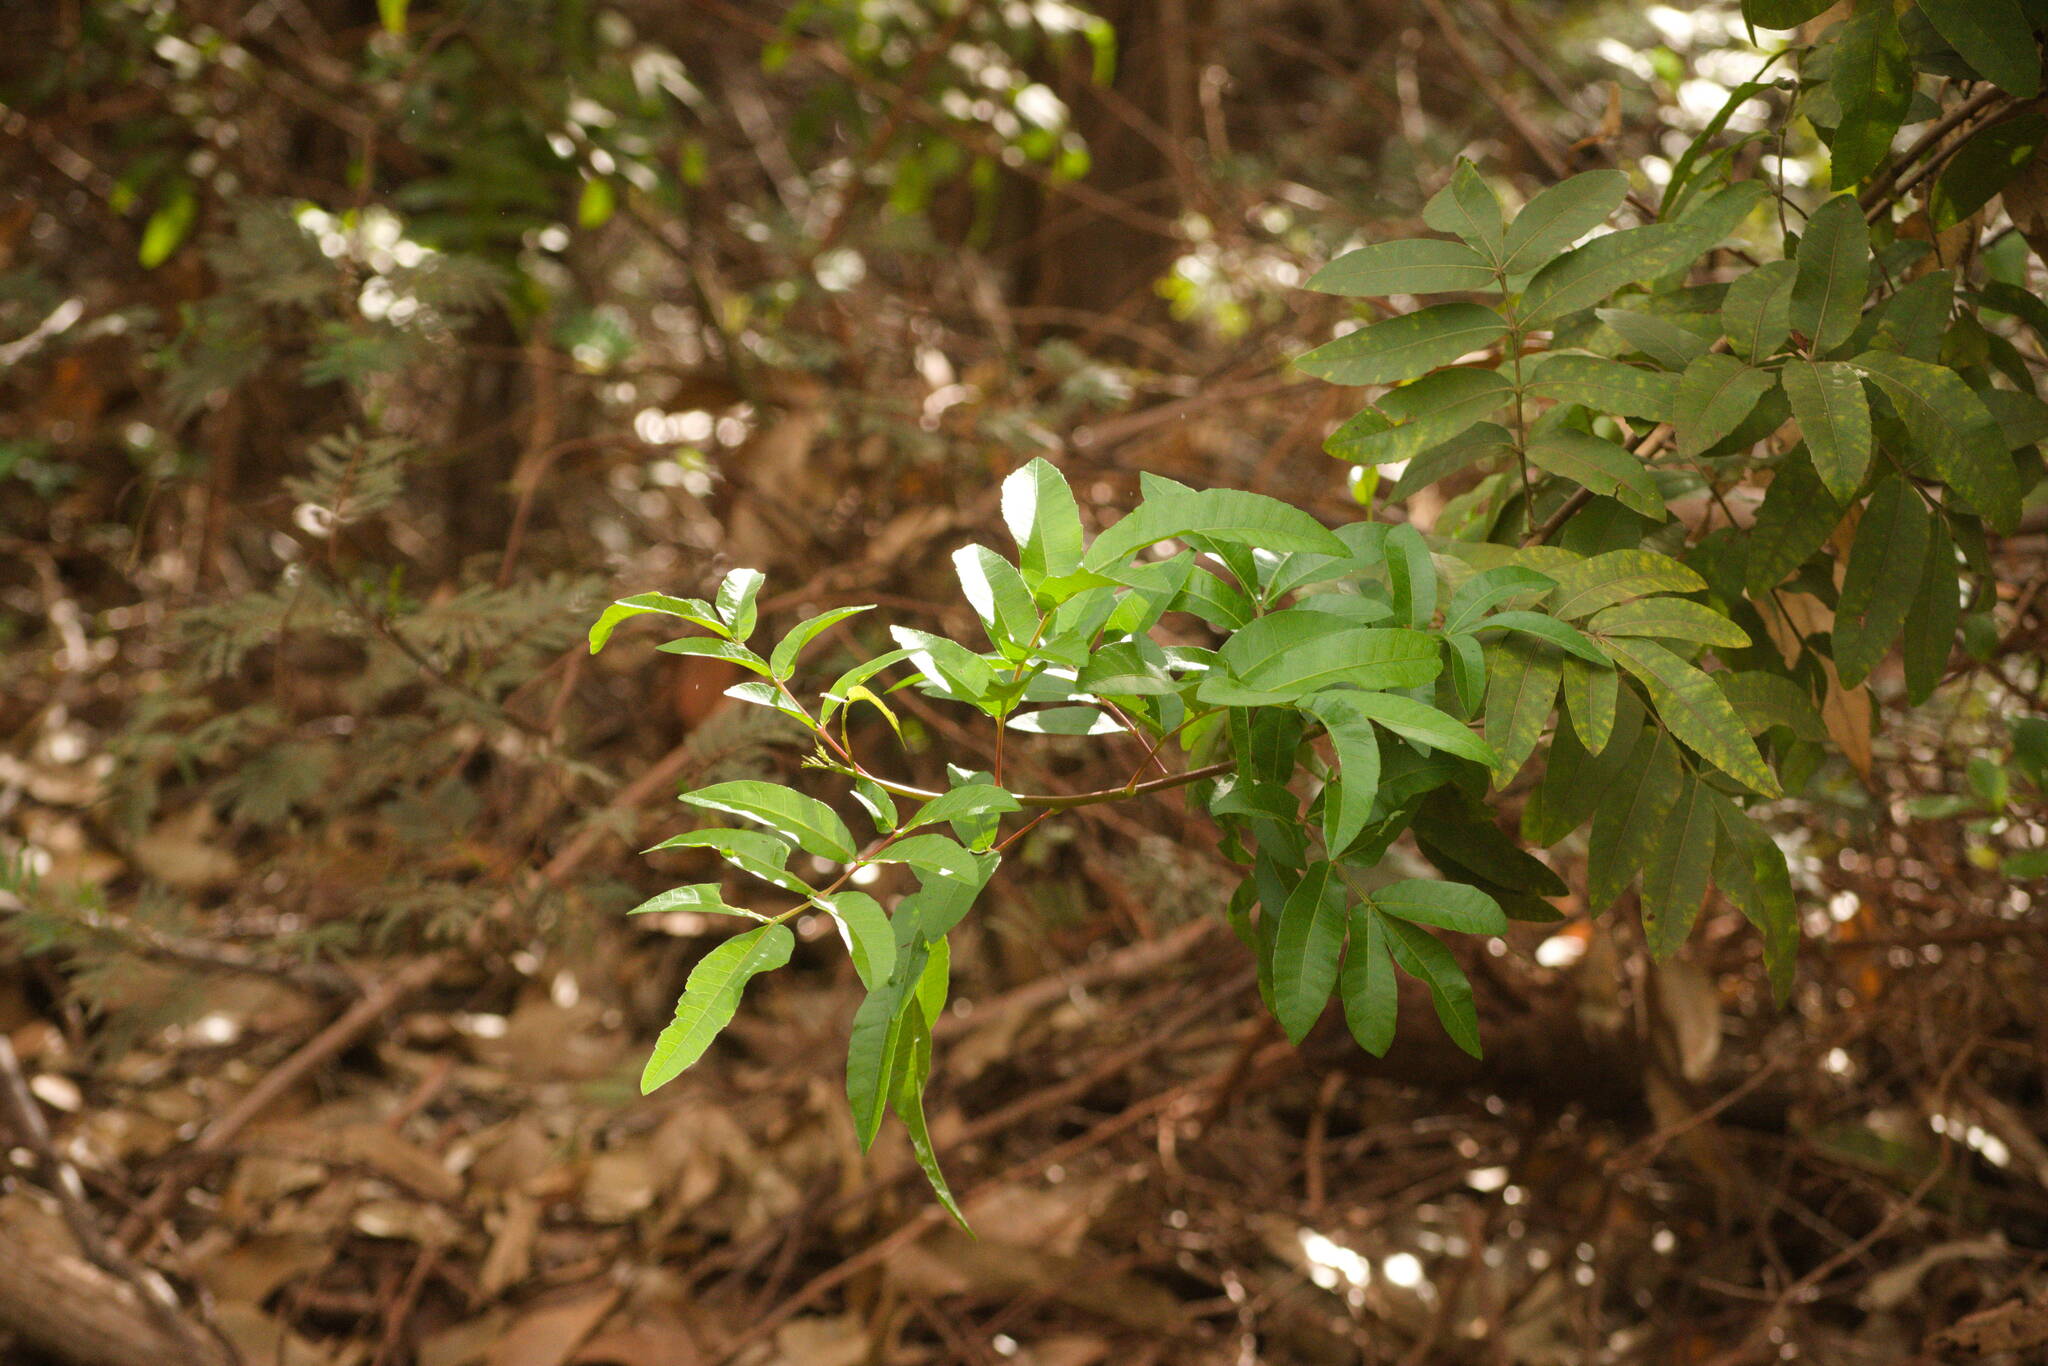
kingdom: Plantae
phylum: Tracheophyta
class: Magnoliopsida
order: Sapindales
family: Anacardiaceae
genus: Schinus
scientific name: Schinus terebinthifolia
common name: Brazilian peppertree
